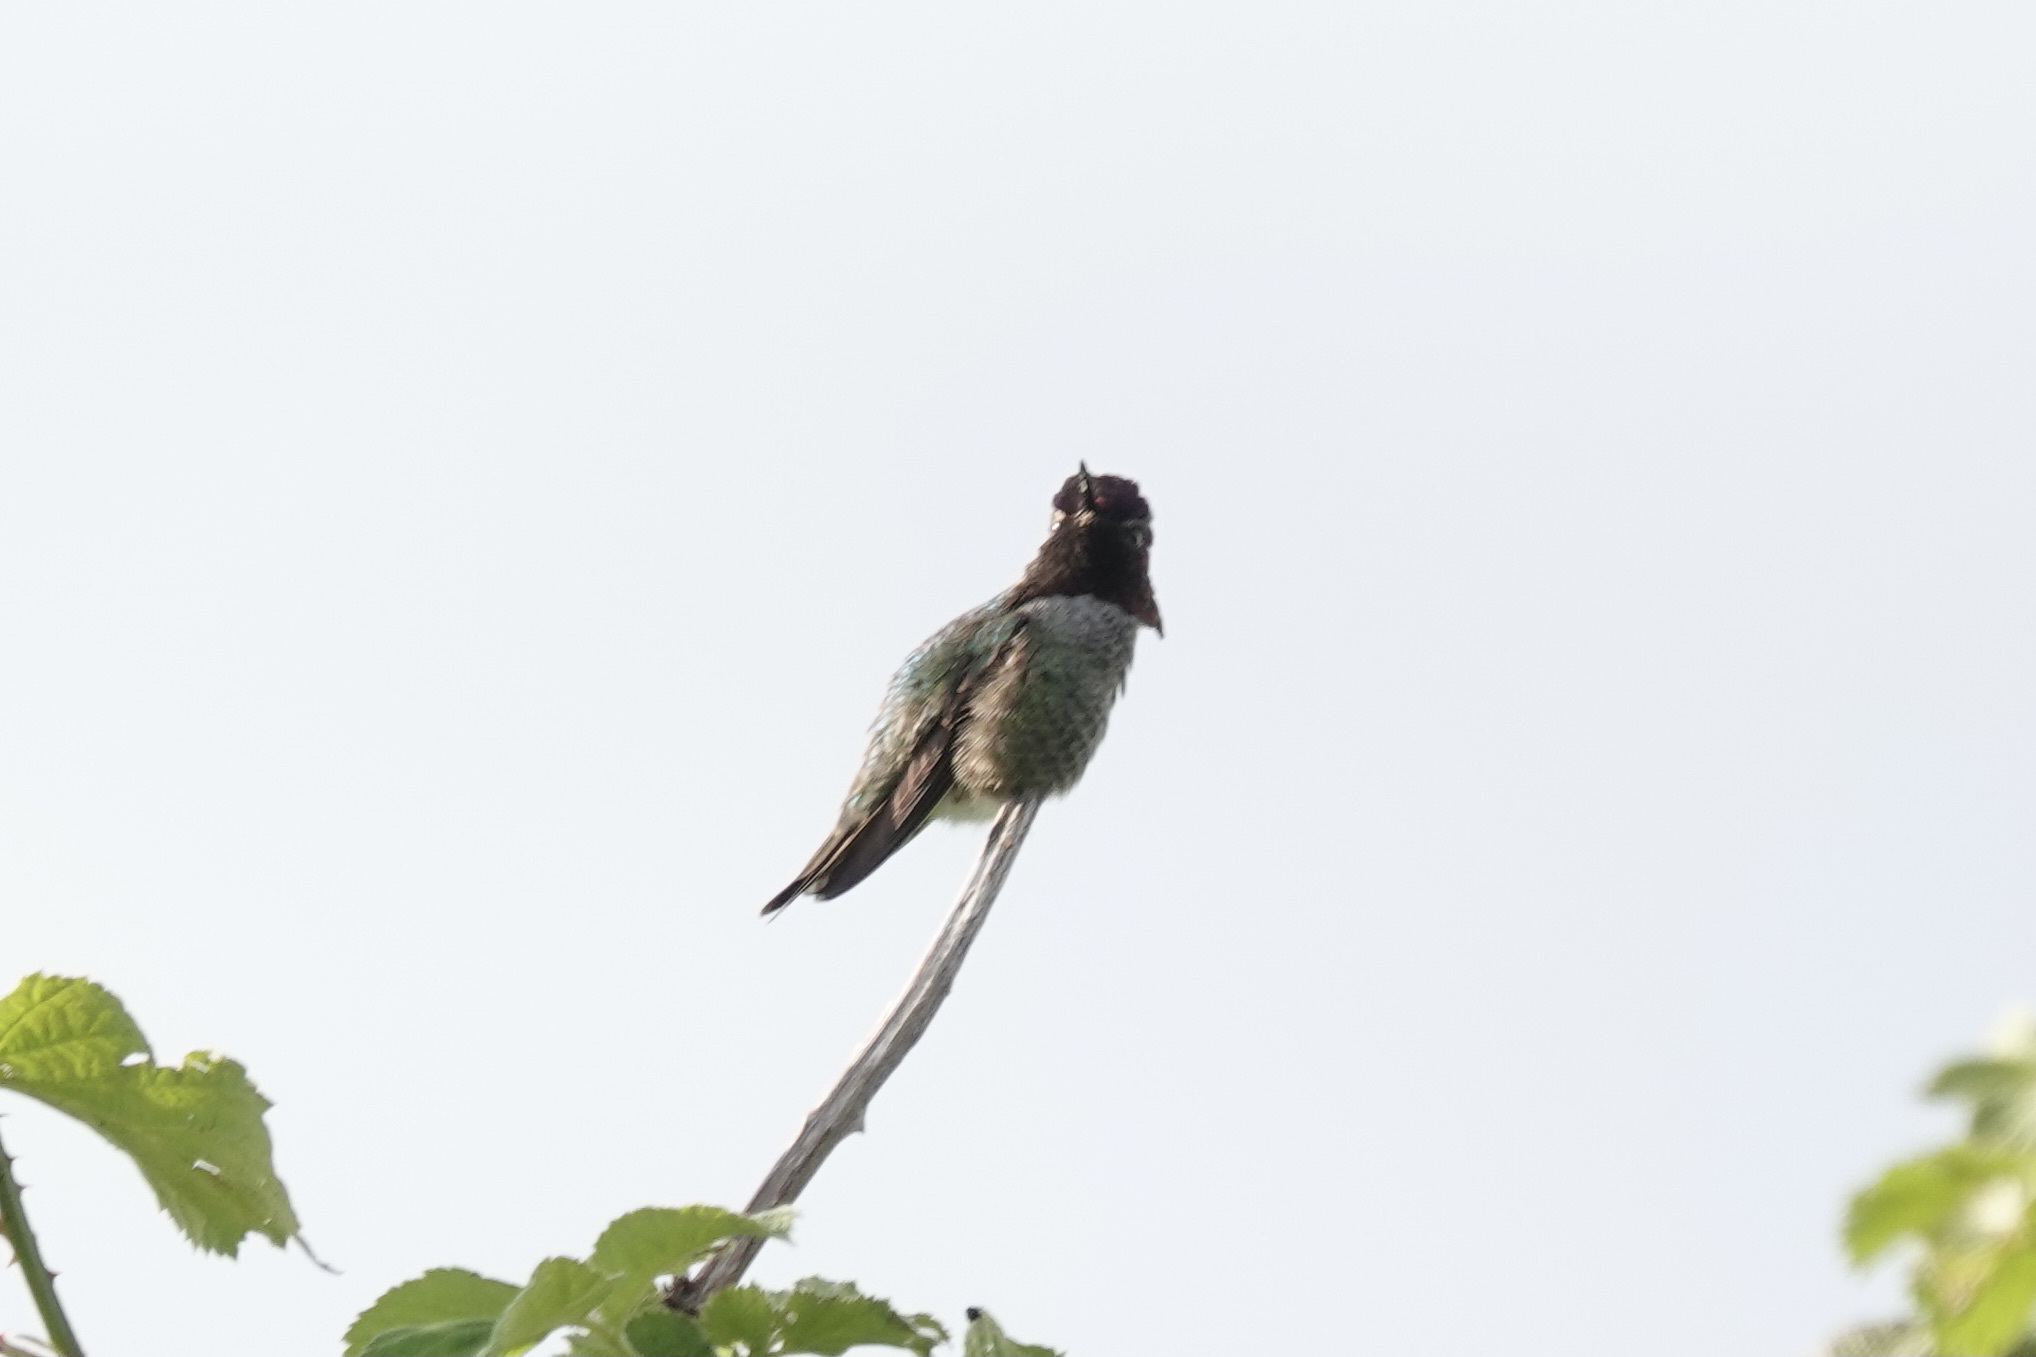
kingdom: Animalia
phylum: Chordata
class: Aves
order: Apodiformes
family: Trochilidae
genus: Calypte
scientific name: Calypte anna
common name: Anna's hummingbird
